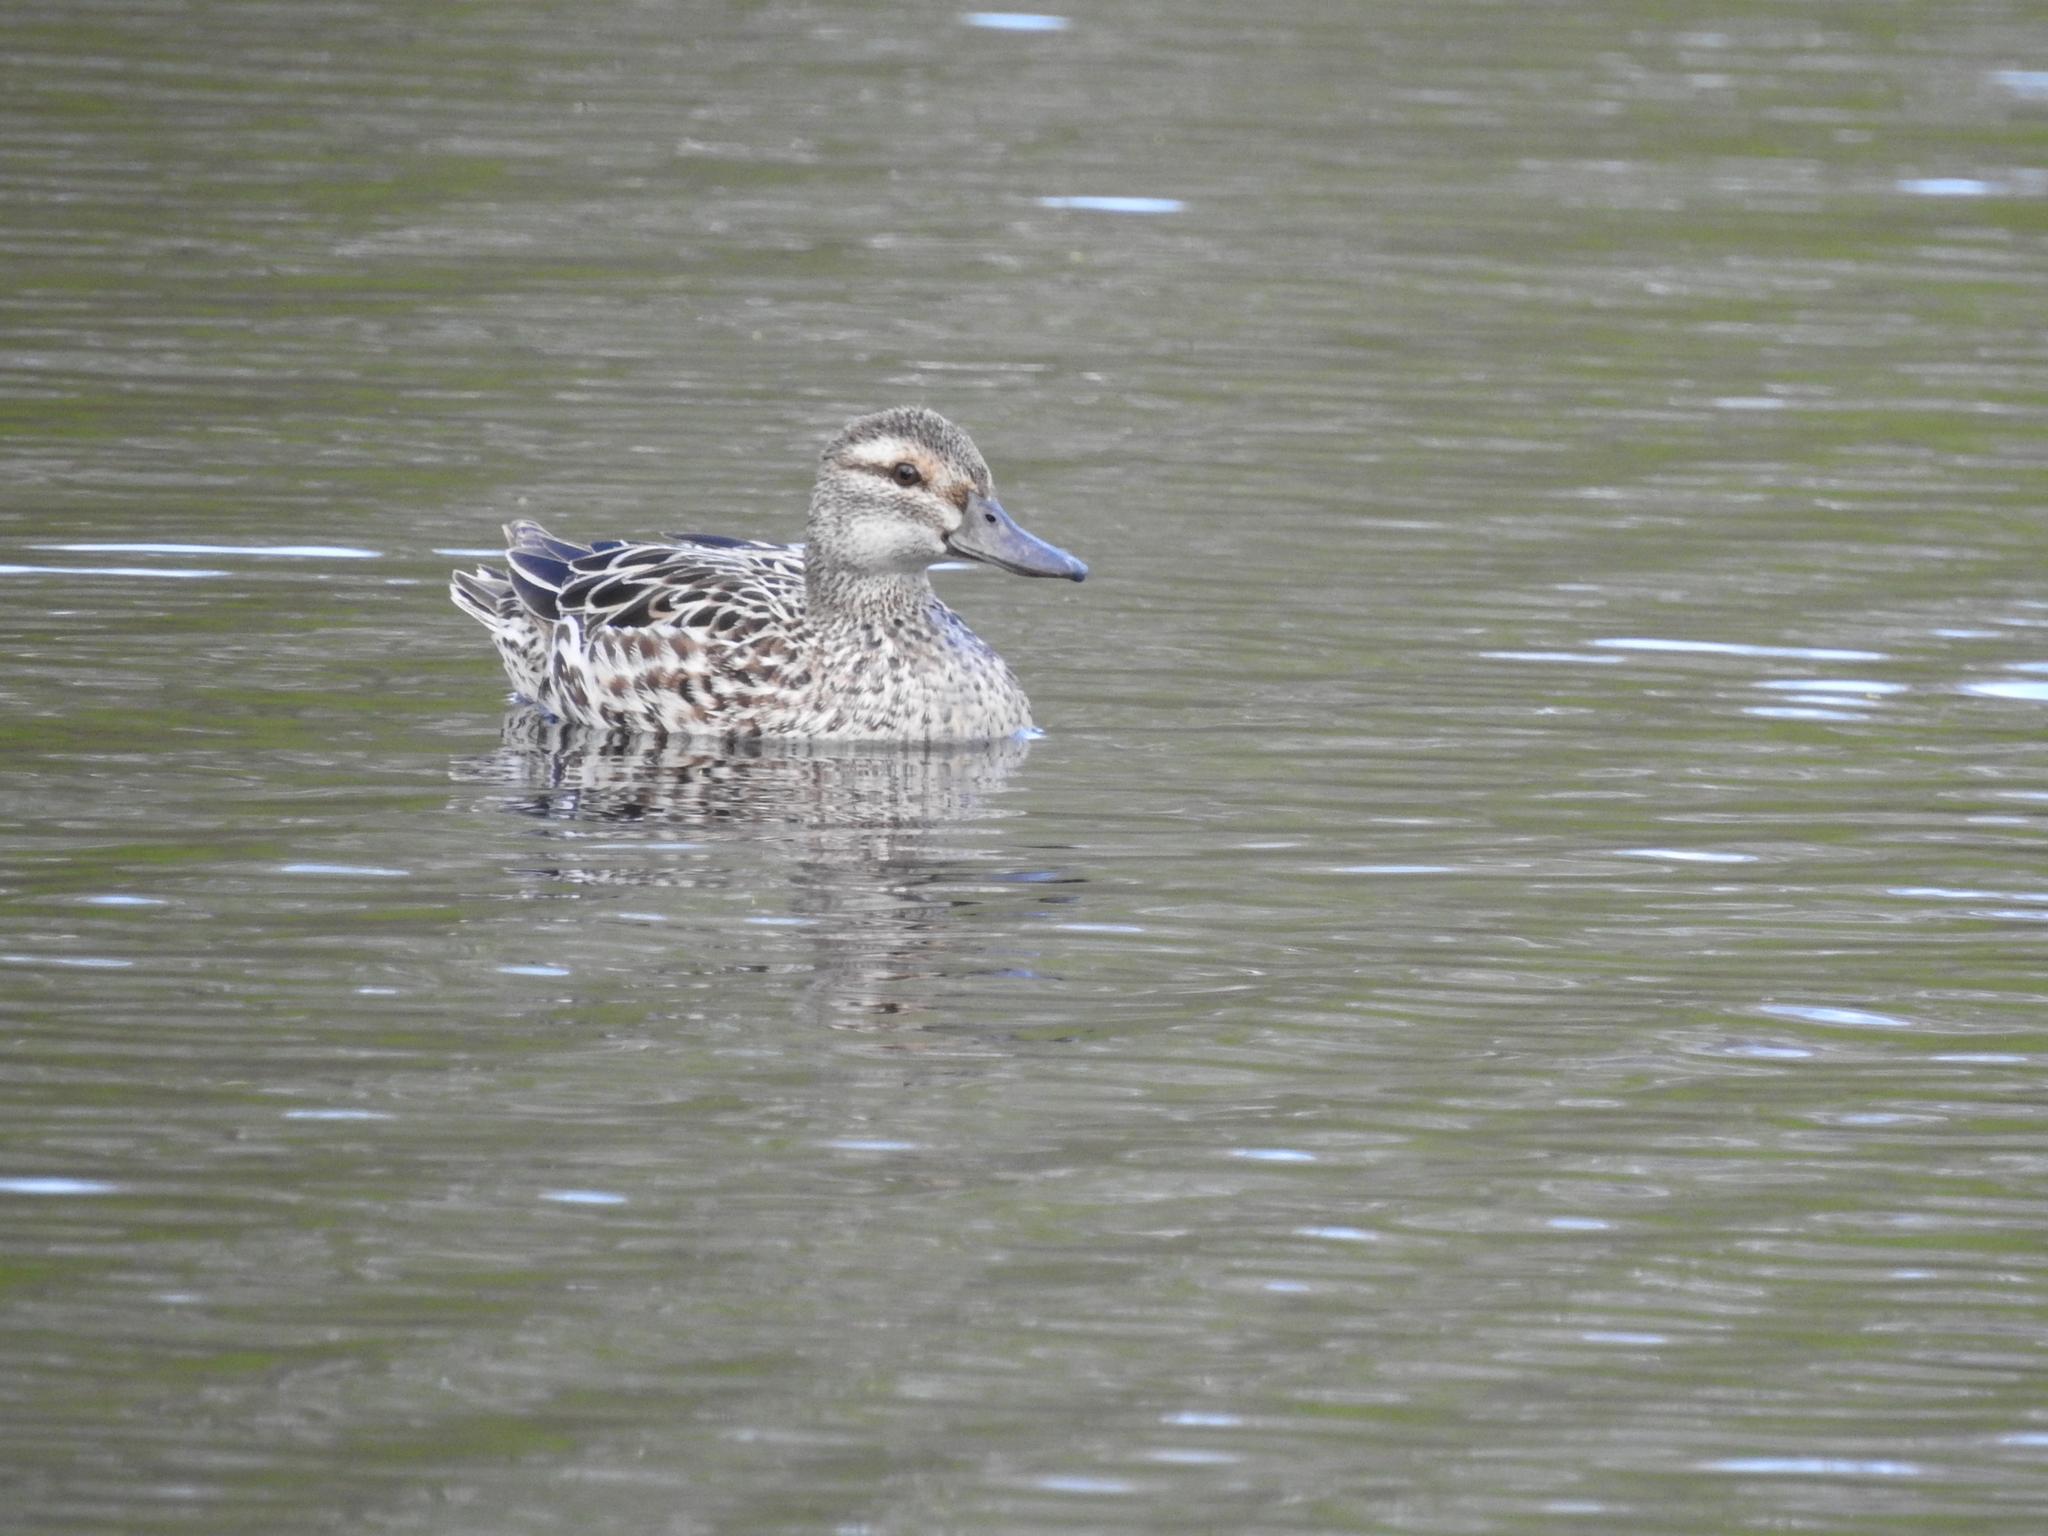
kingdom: Animalia
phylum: Chordata
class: Aves
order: Anseriformes
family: Anatidae
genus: Spatula
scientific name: Spatula querquedula
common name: Garganey
